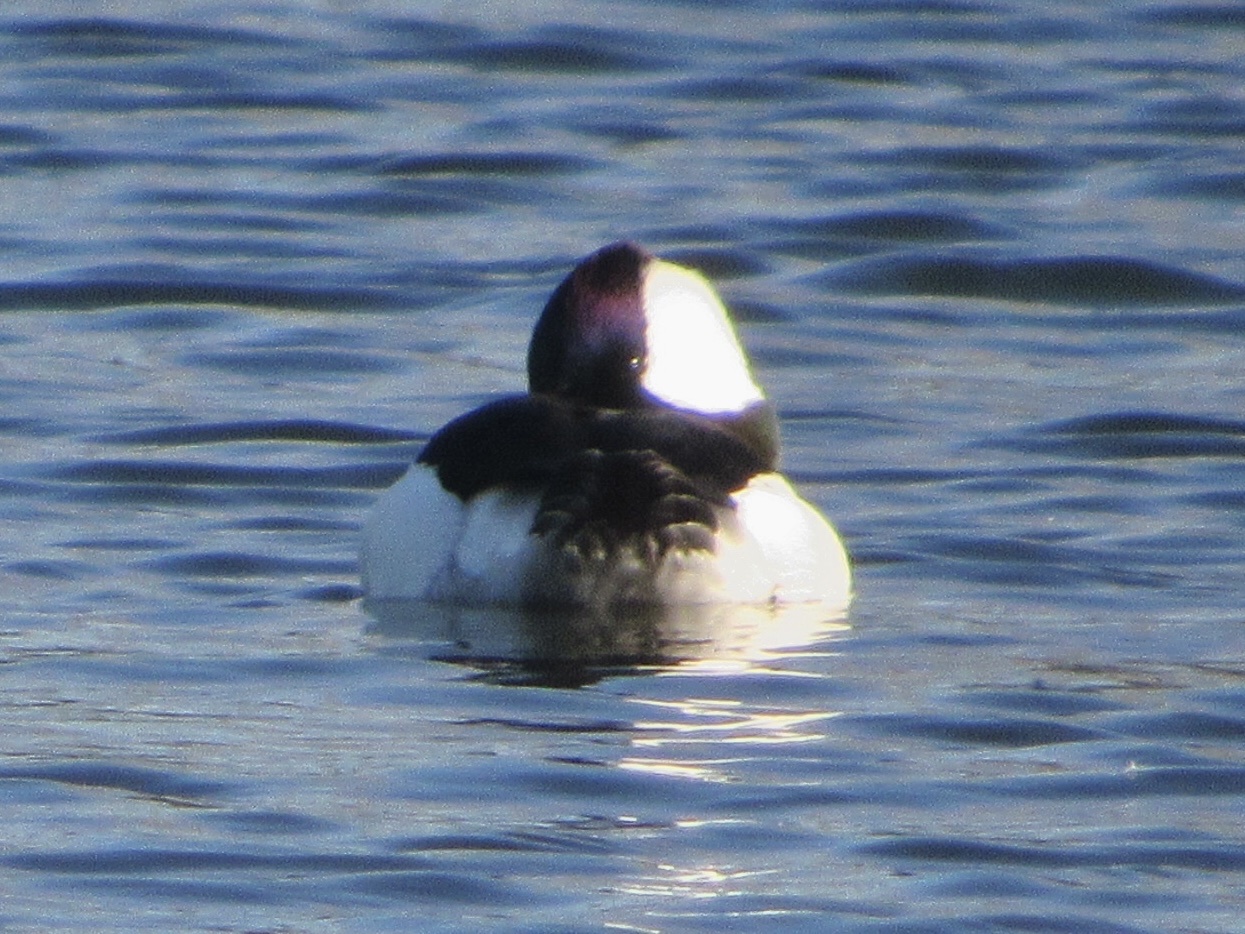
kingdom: Animalia
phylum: Chordata
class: Aves
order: Anseriformes
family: Anatidae
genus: Bucephala
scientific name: Bucephala albeola
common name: Bufflehead
